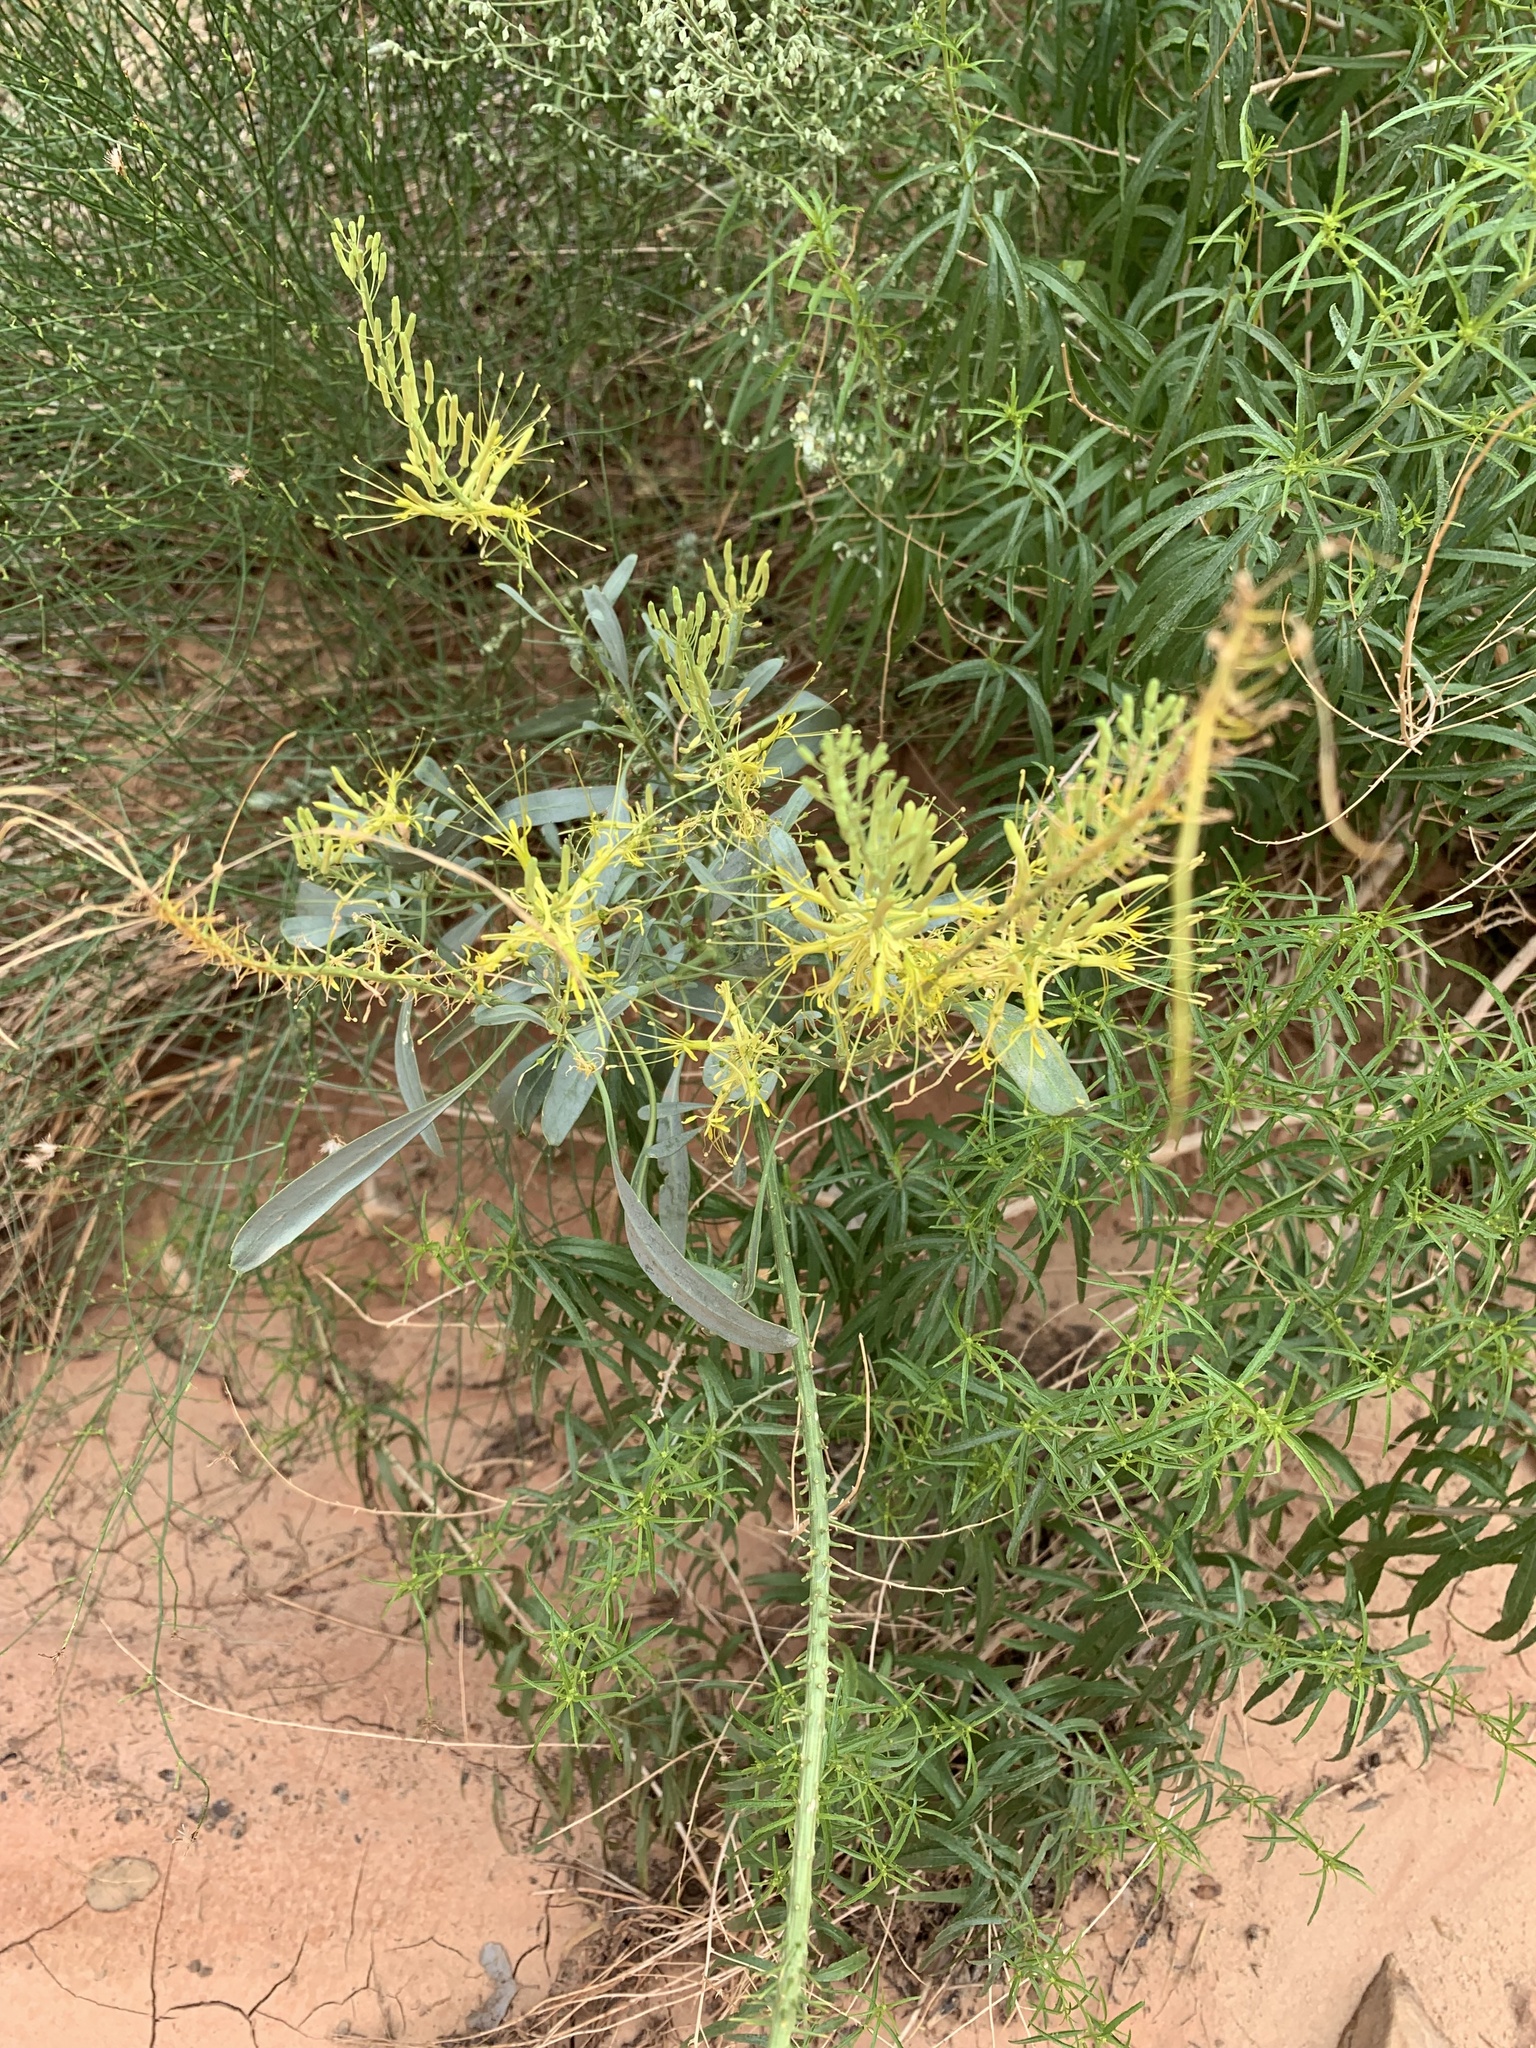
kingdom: Plantae
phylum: Tracheophyta
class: Magnoliopsida
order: Brassicales
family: Brassicaceae
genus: Stanleya
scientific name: Stanleya pinnata
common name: Prince's-plume
